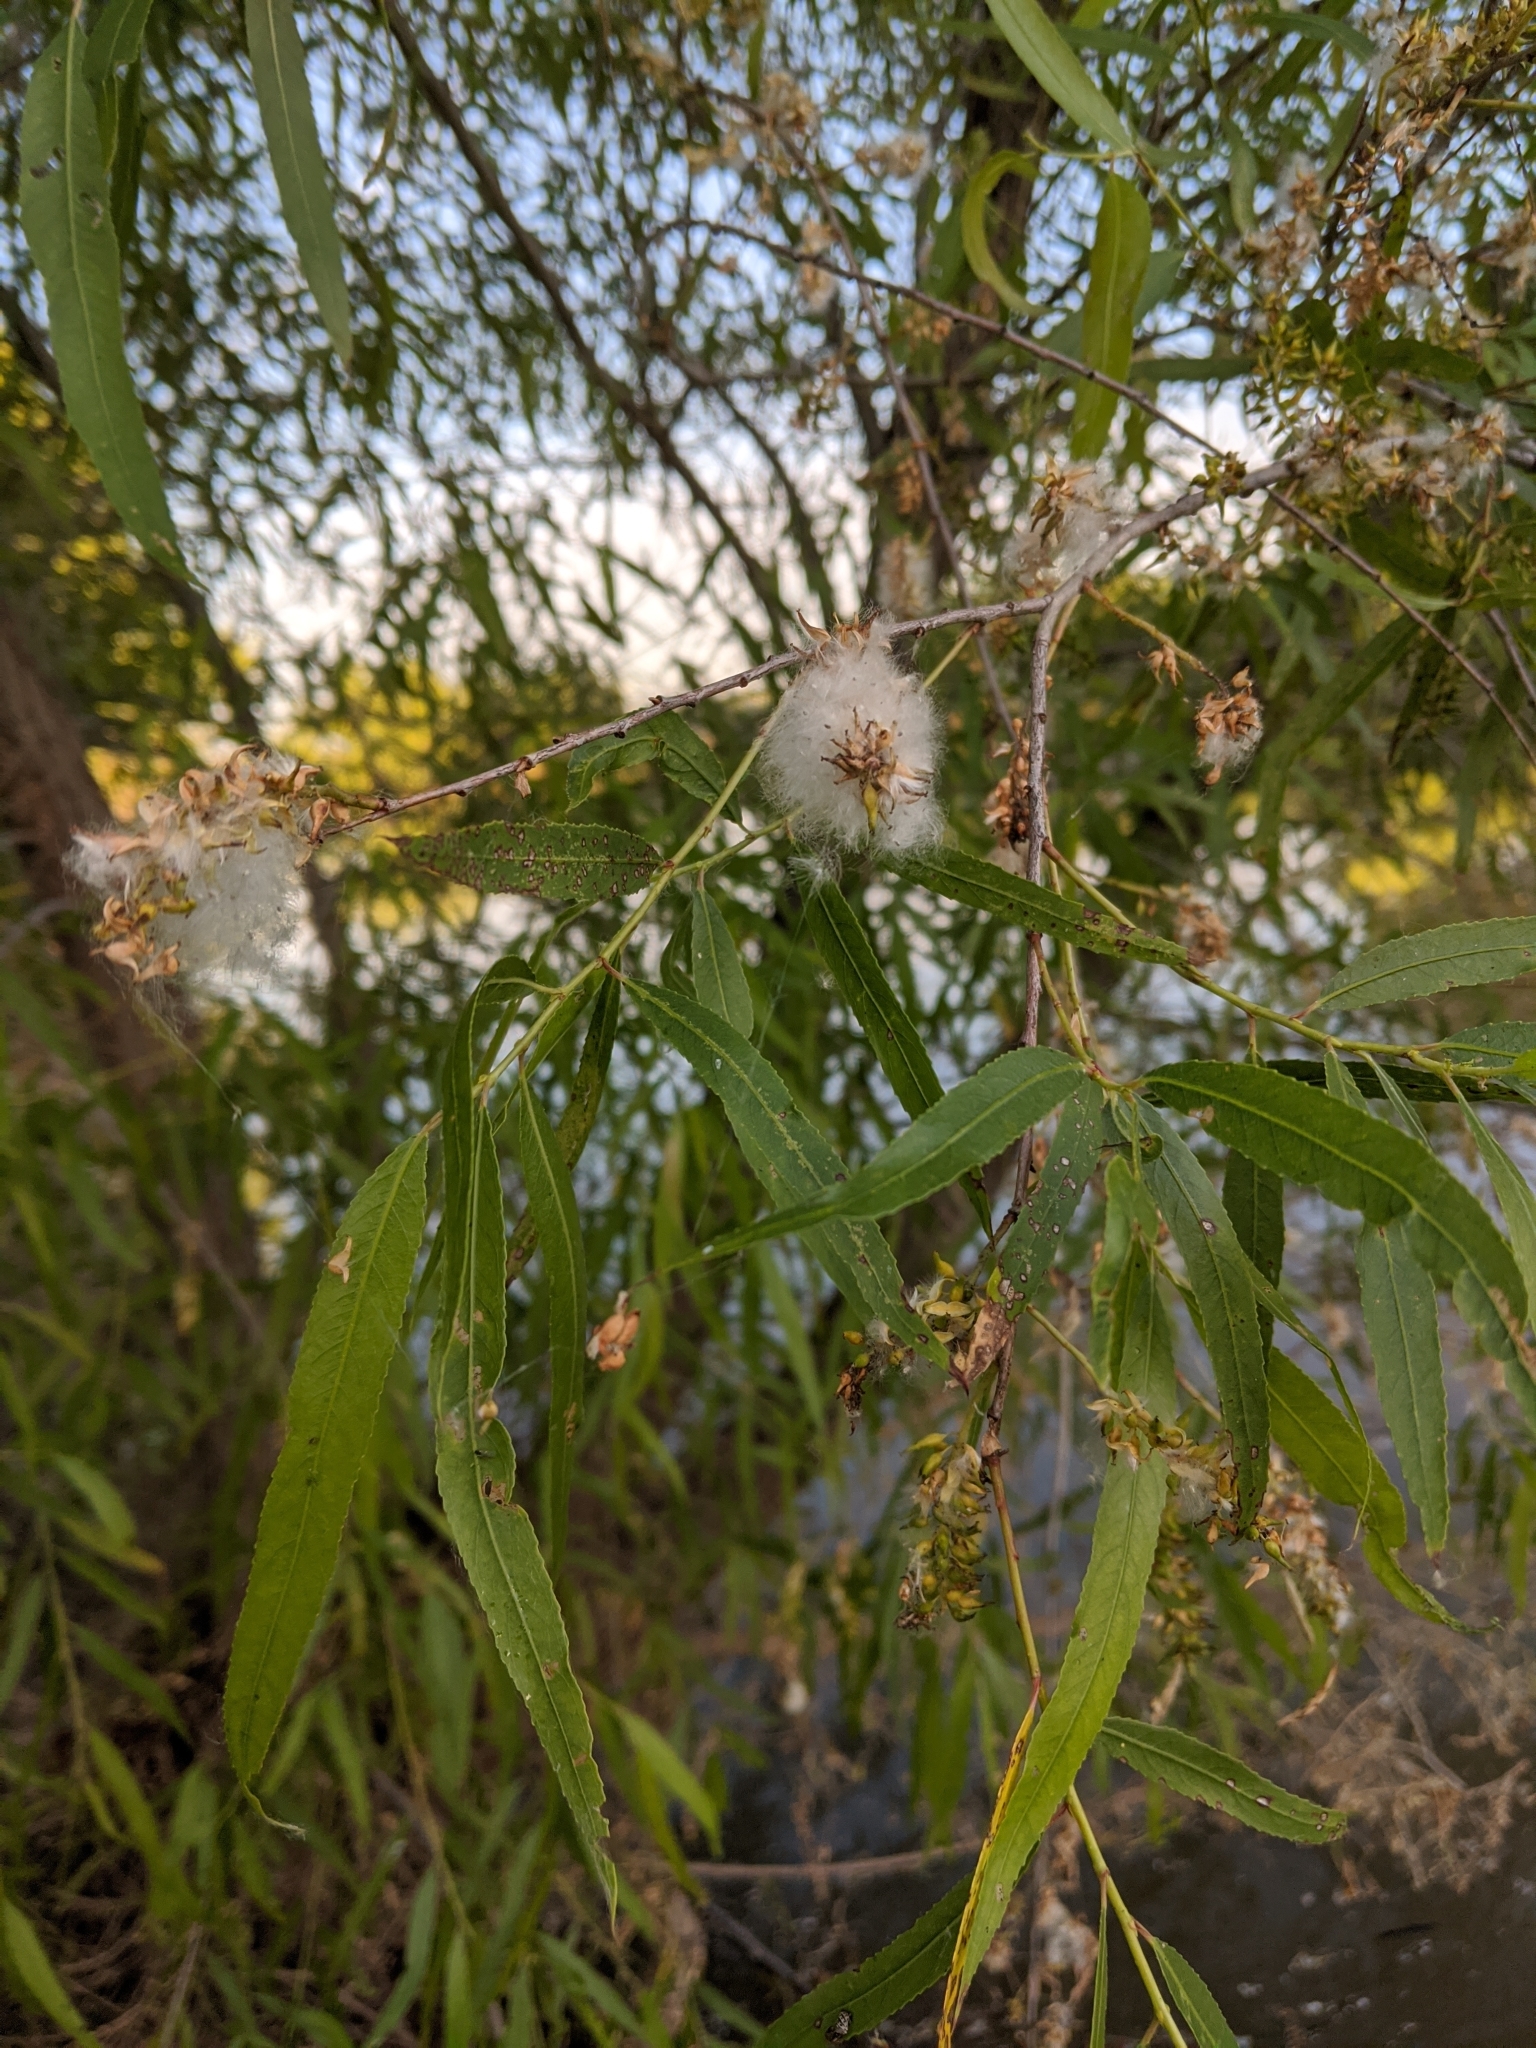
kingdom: Plantae
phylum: Tracheophyta
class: Magnoliopsida
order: Malpighiales
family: Salicaceae
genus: Salix
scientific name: Salix gooddingii
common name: Goodding's willow
